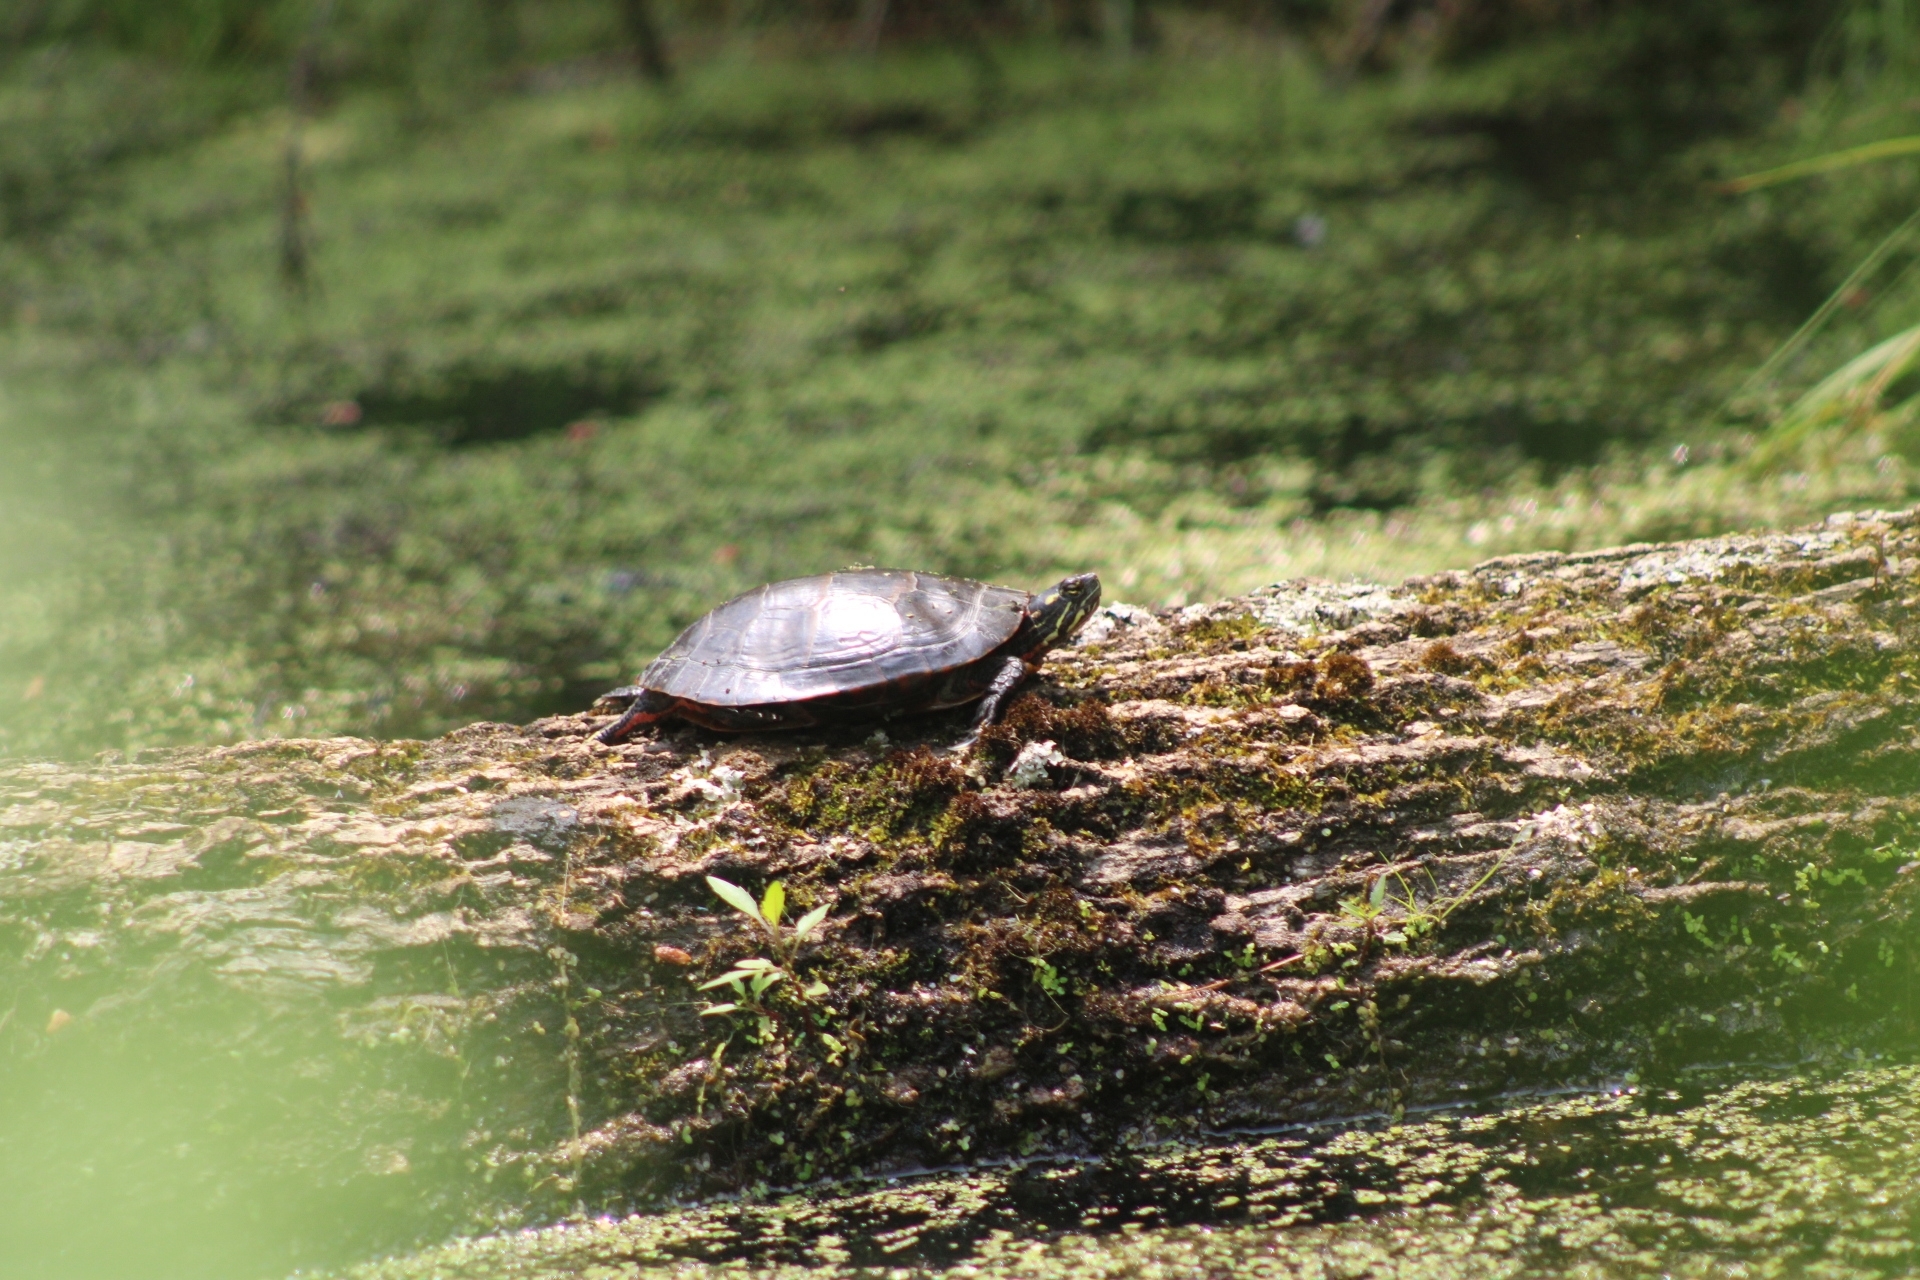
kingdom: Animalia
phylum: Chordata
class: Testudines
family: Emydidae
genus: Chrysemys
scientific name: Chrysemys picta
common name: Painted turtle
